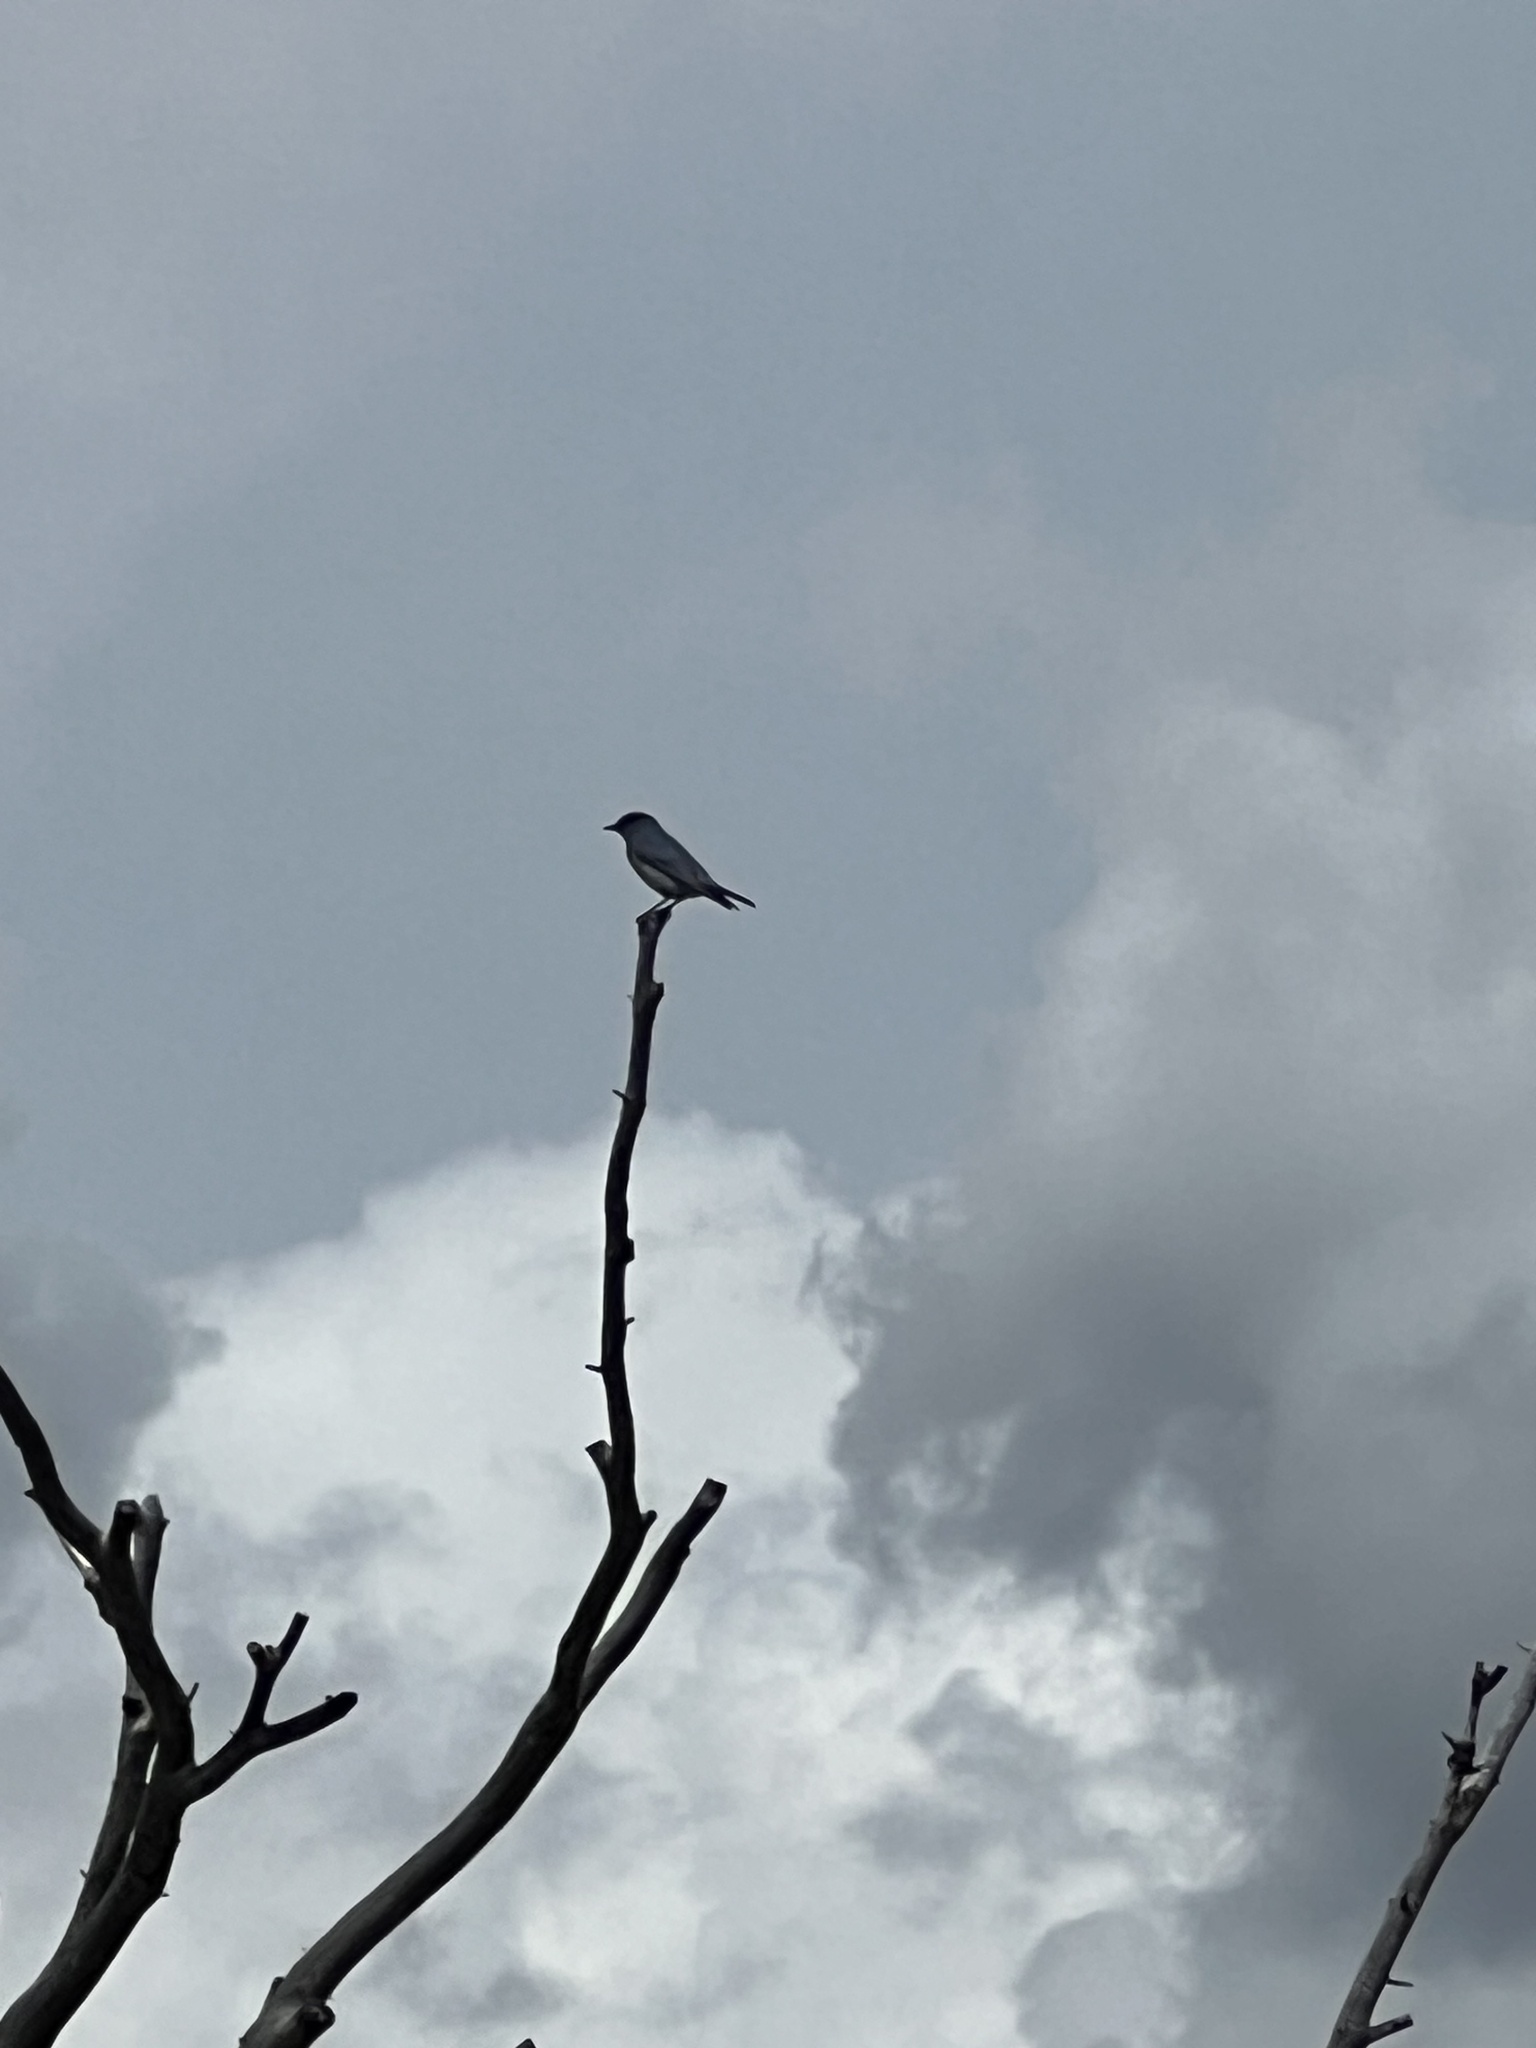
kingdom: Animalia
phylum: Chordata
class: Aves
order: Passeriformes
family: Turdidae
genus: Sialia
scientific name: Sialia currucoides
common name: Mountain bluebird
